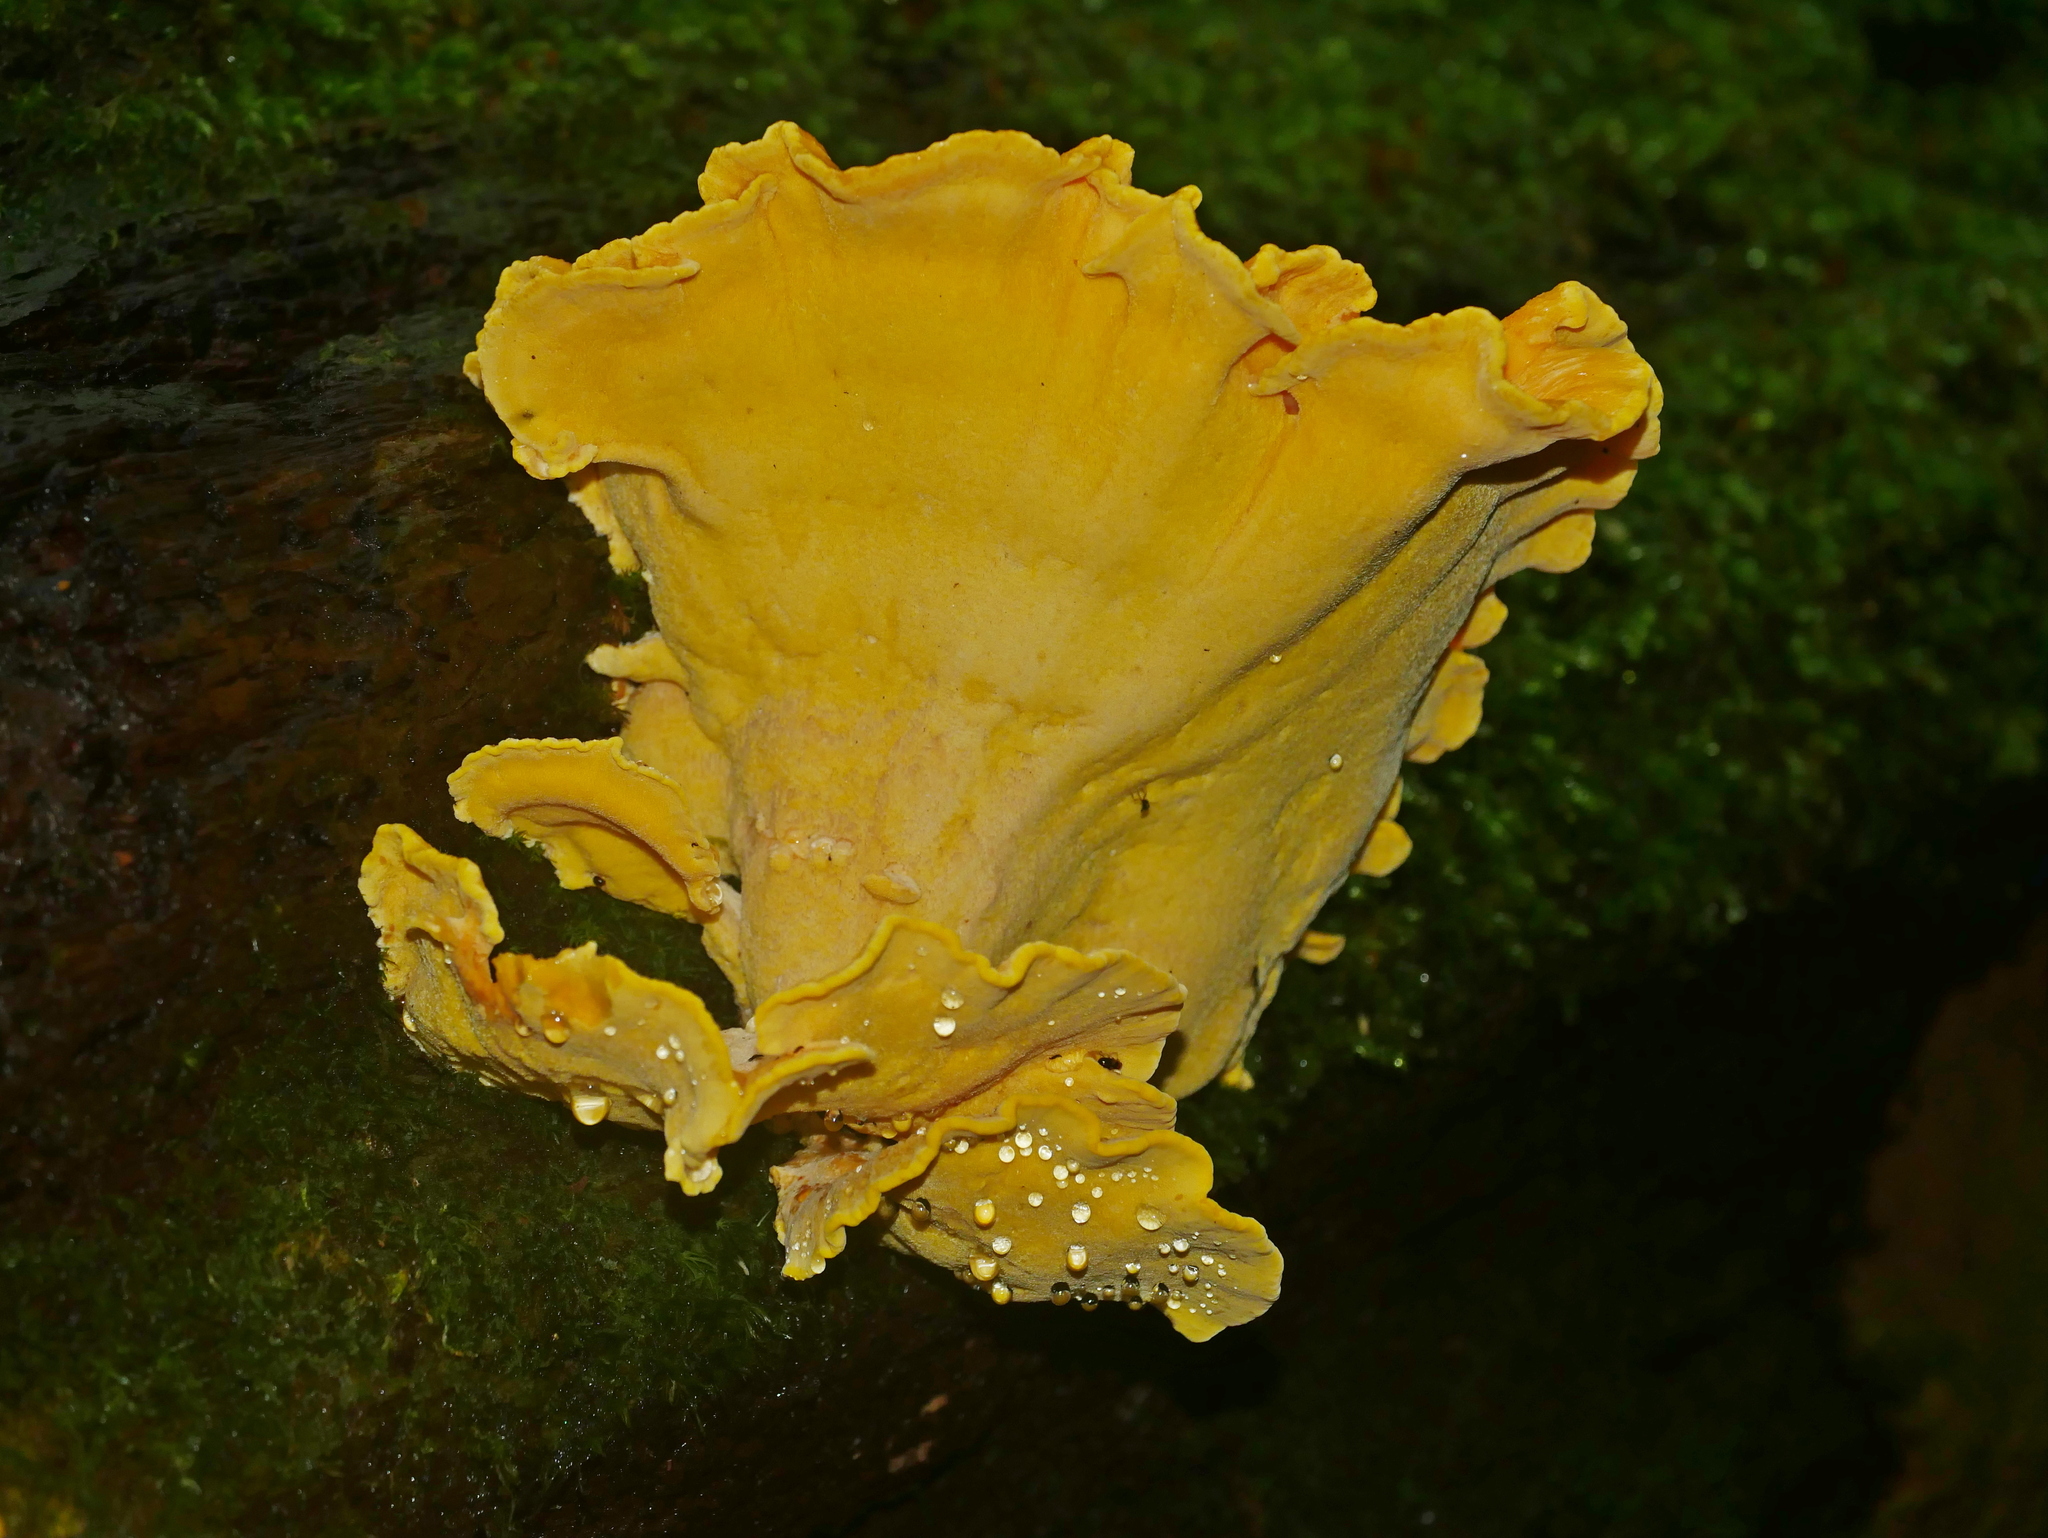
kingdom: Fungi
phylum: Basidiomycota
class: Agaricomycetes
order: Polyporales
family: Laetiporaceae
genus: Laetiporus
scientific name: Laetiporus sulphureus
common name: Chicken of the woods
